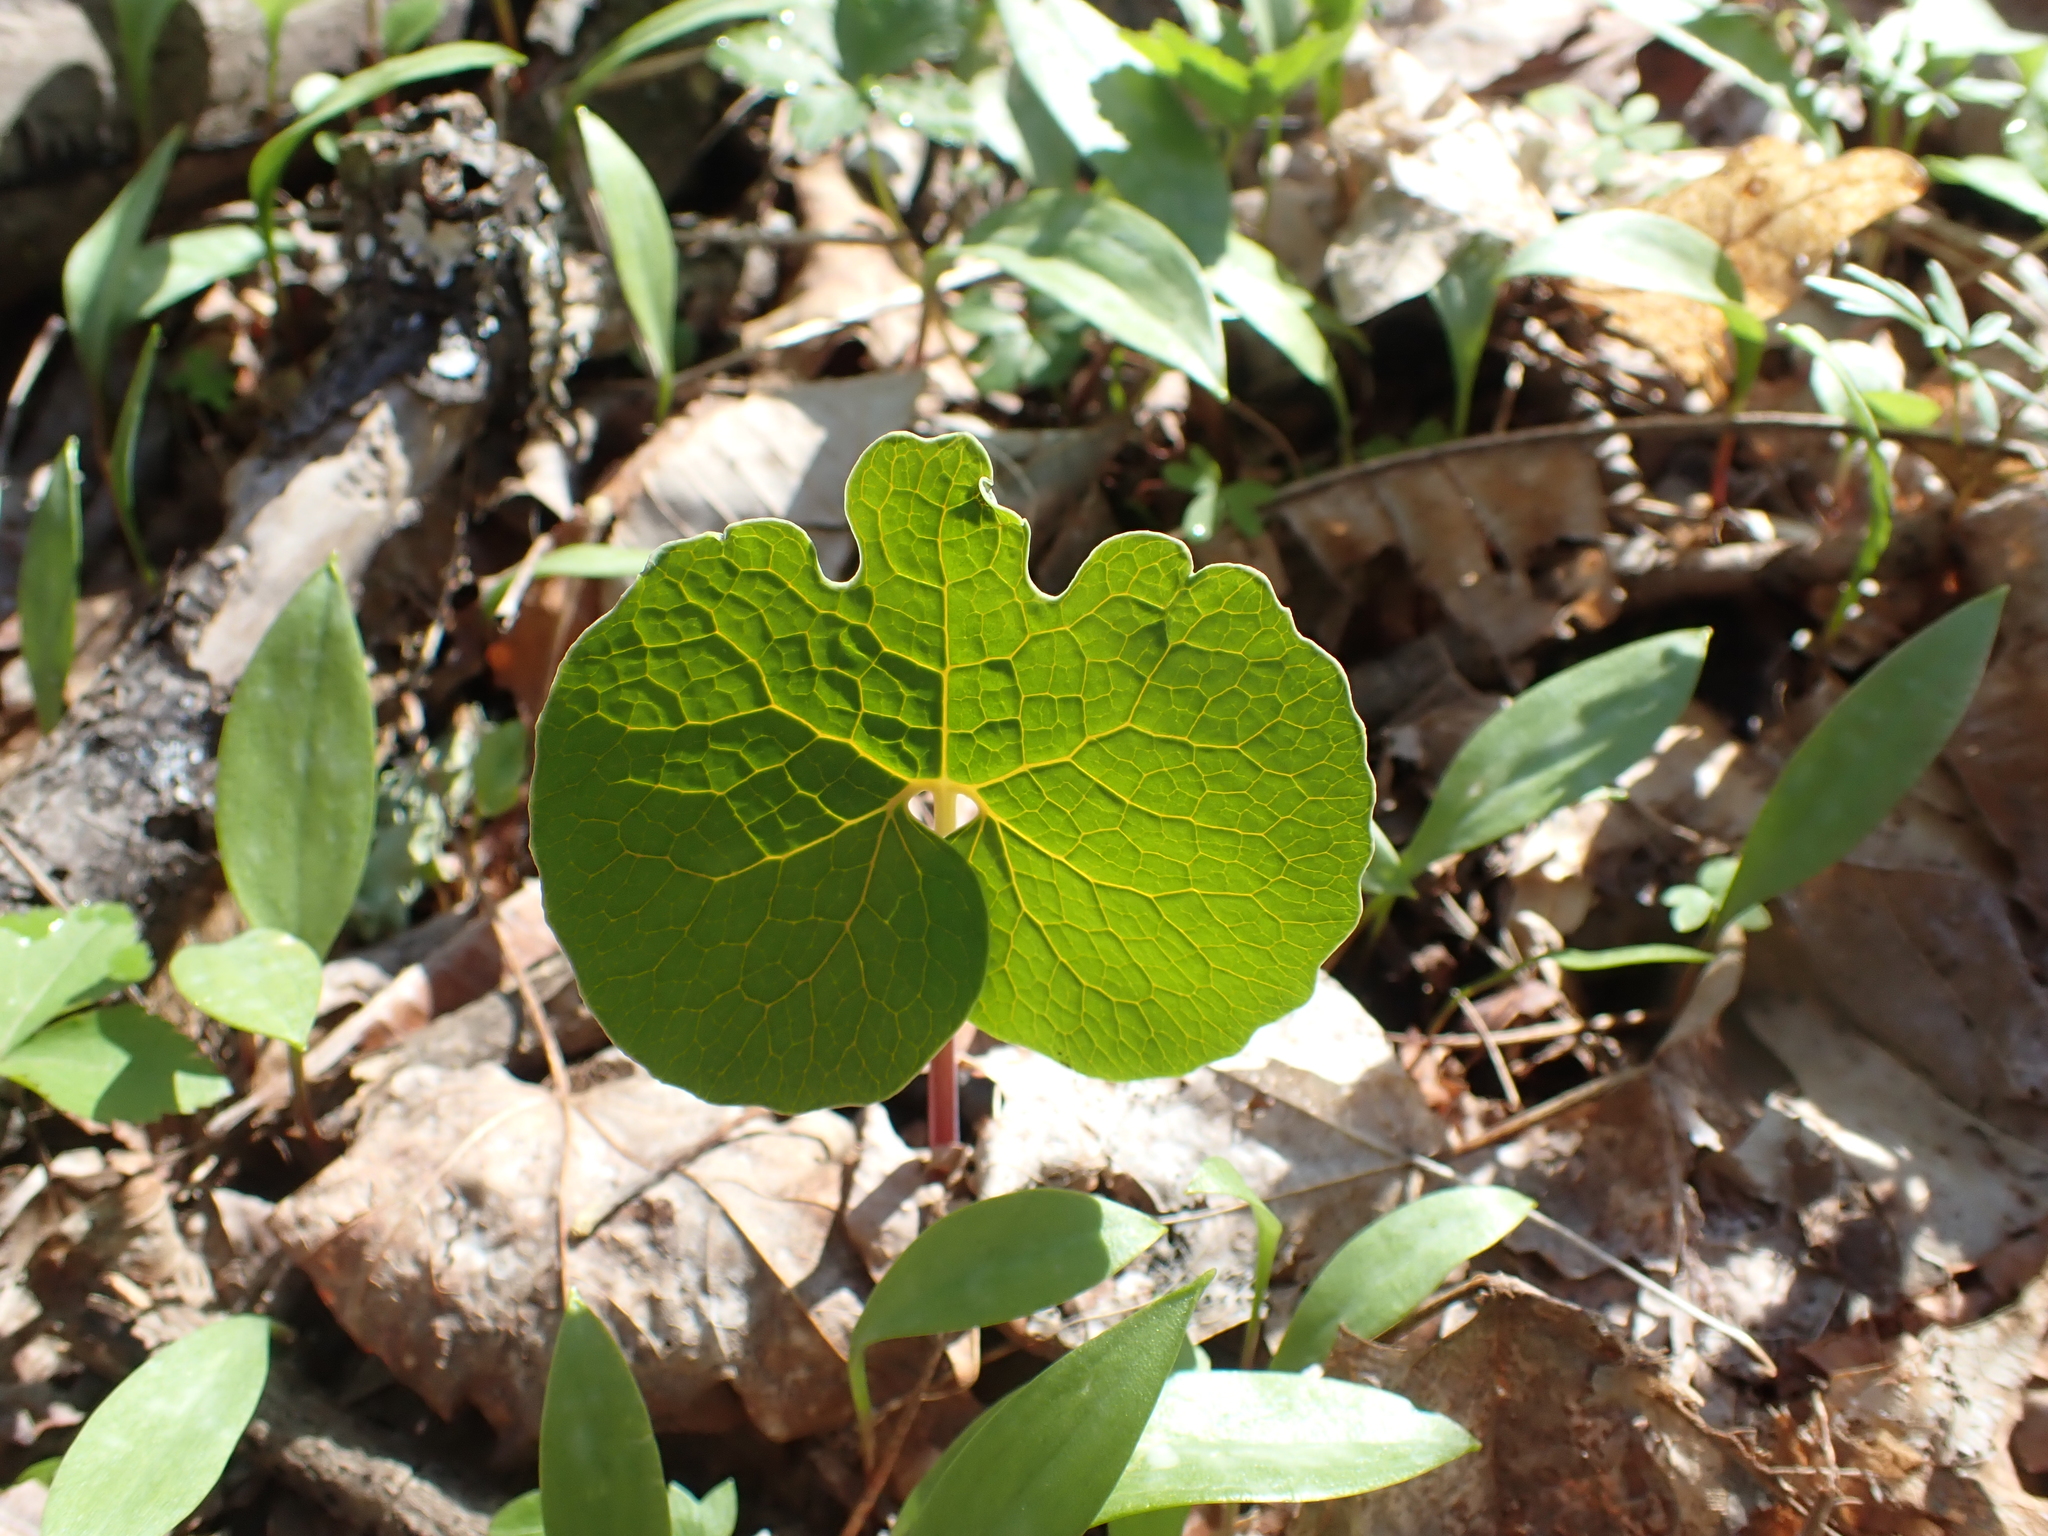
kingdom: Plantae
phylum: Tracheophyta
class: Magnoliopsida
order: Ranunculales
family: Papaveraceae
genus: Sanguinaria
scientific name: Sanguinaria canadensis
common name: Bloodroot
